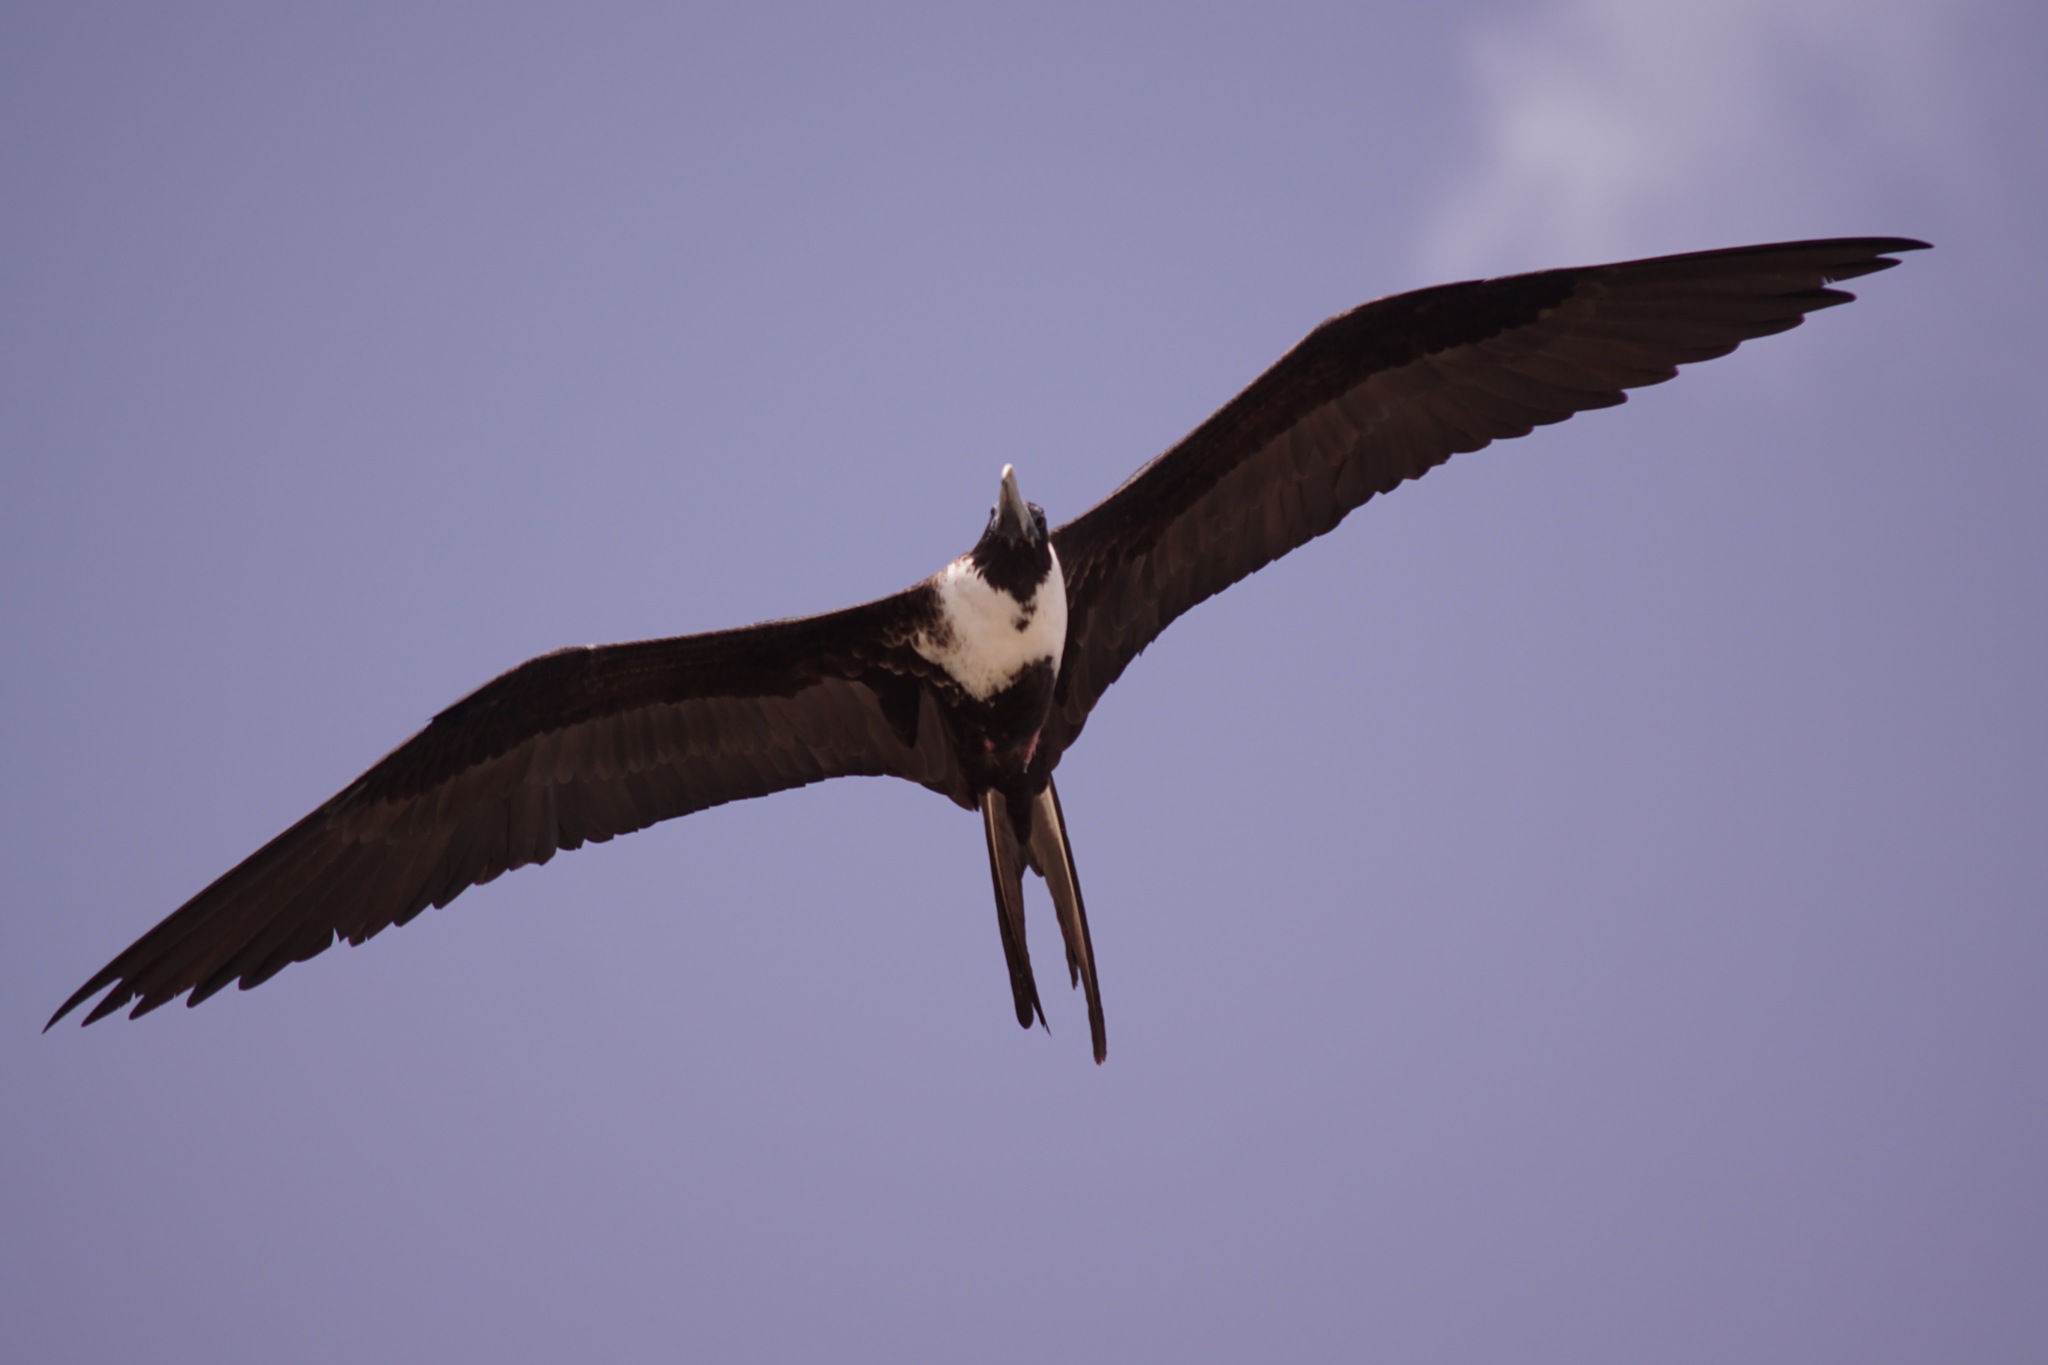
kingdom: Animalia
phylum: Chordata
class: Aves
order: Suliformes
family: Fregatidae
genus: Fregata
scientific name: Fregata magnificens
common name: Magnificent frigatebird
